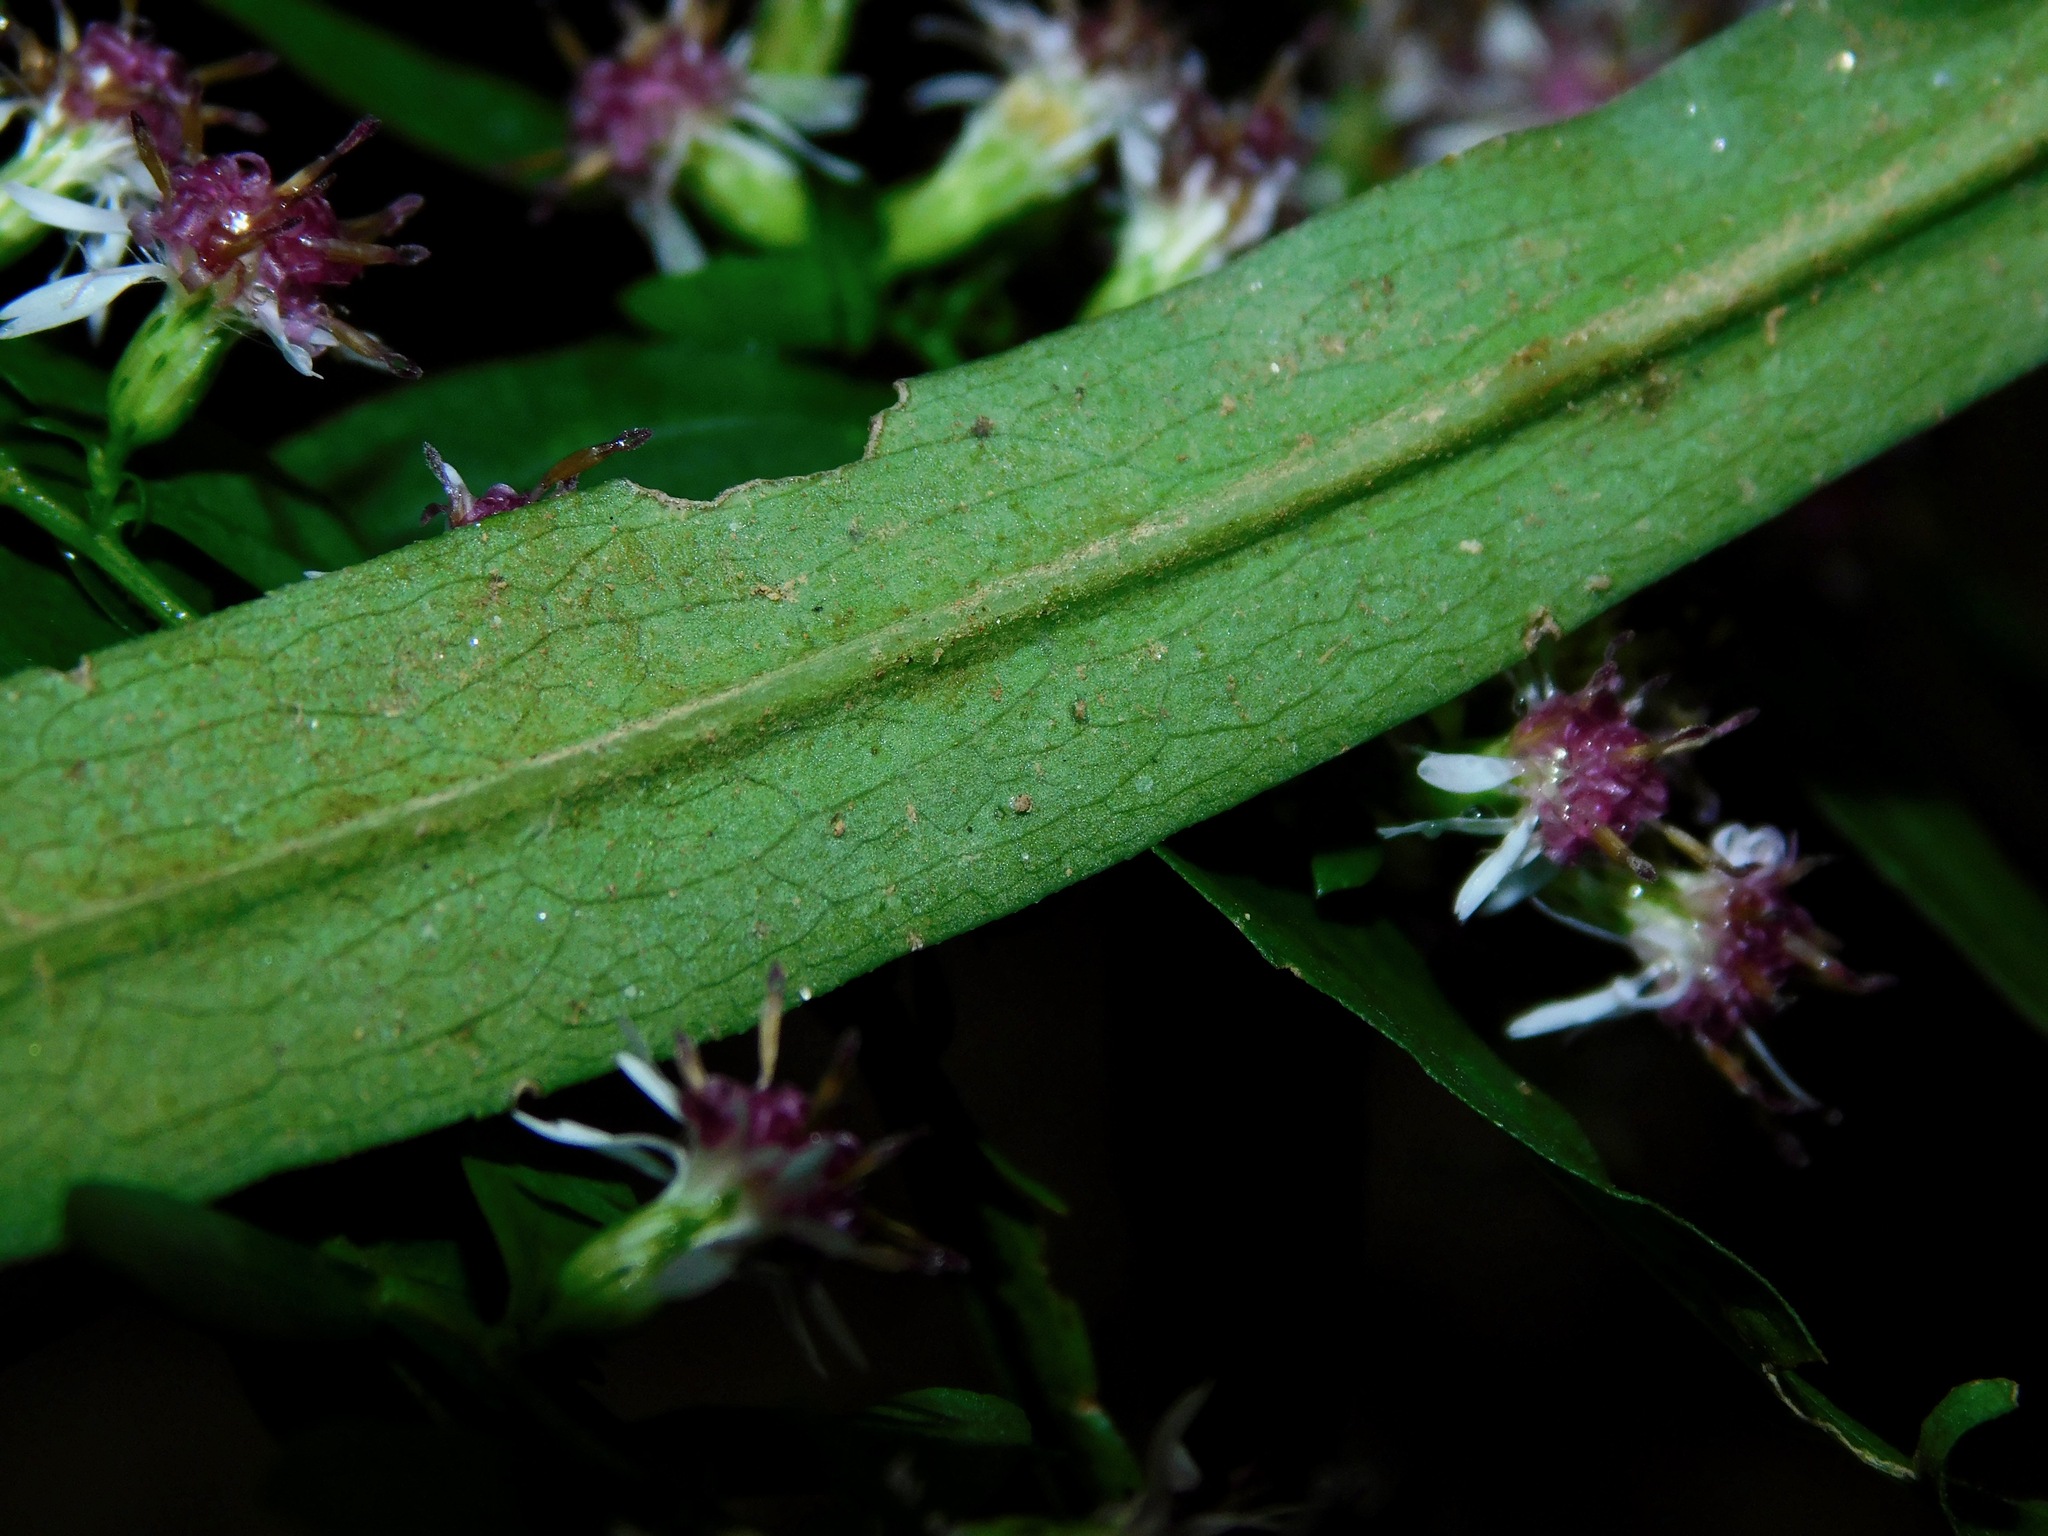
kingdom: Plantae
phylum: Tracheophyta
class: Magnoliopsida
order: Asterales
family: Asteraceae
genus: Symphyotrichum
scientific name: Symphyotrichum lateriflorum
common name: Calico aster
